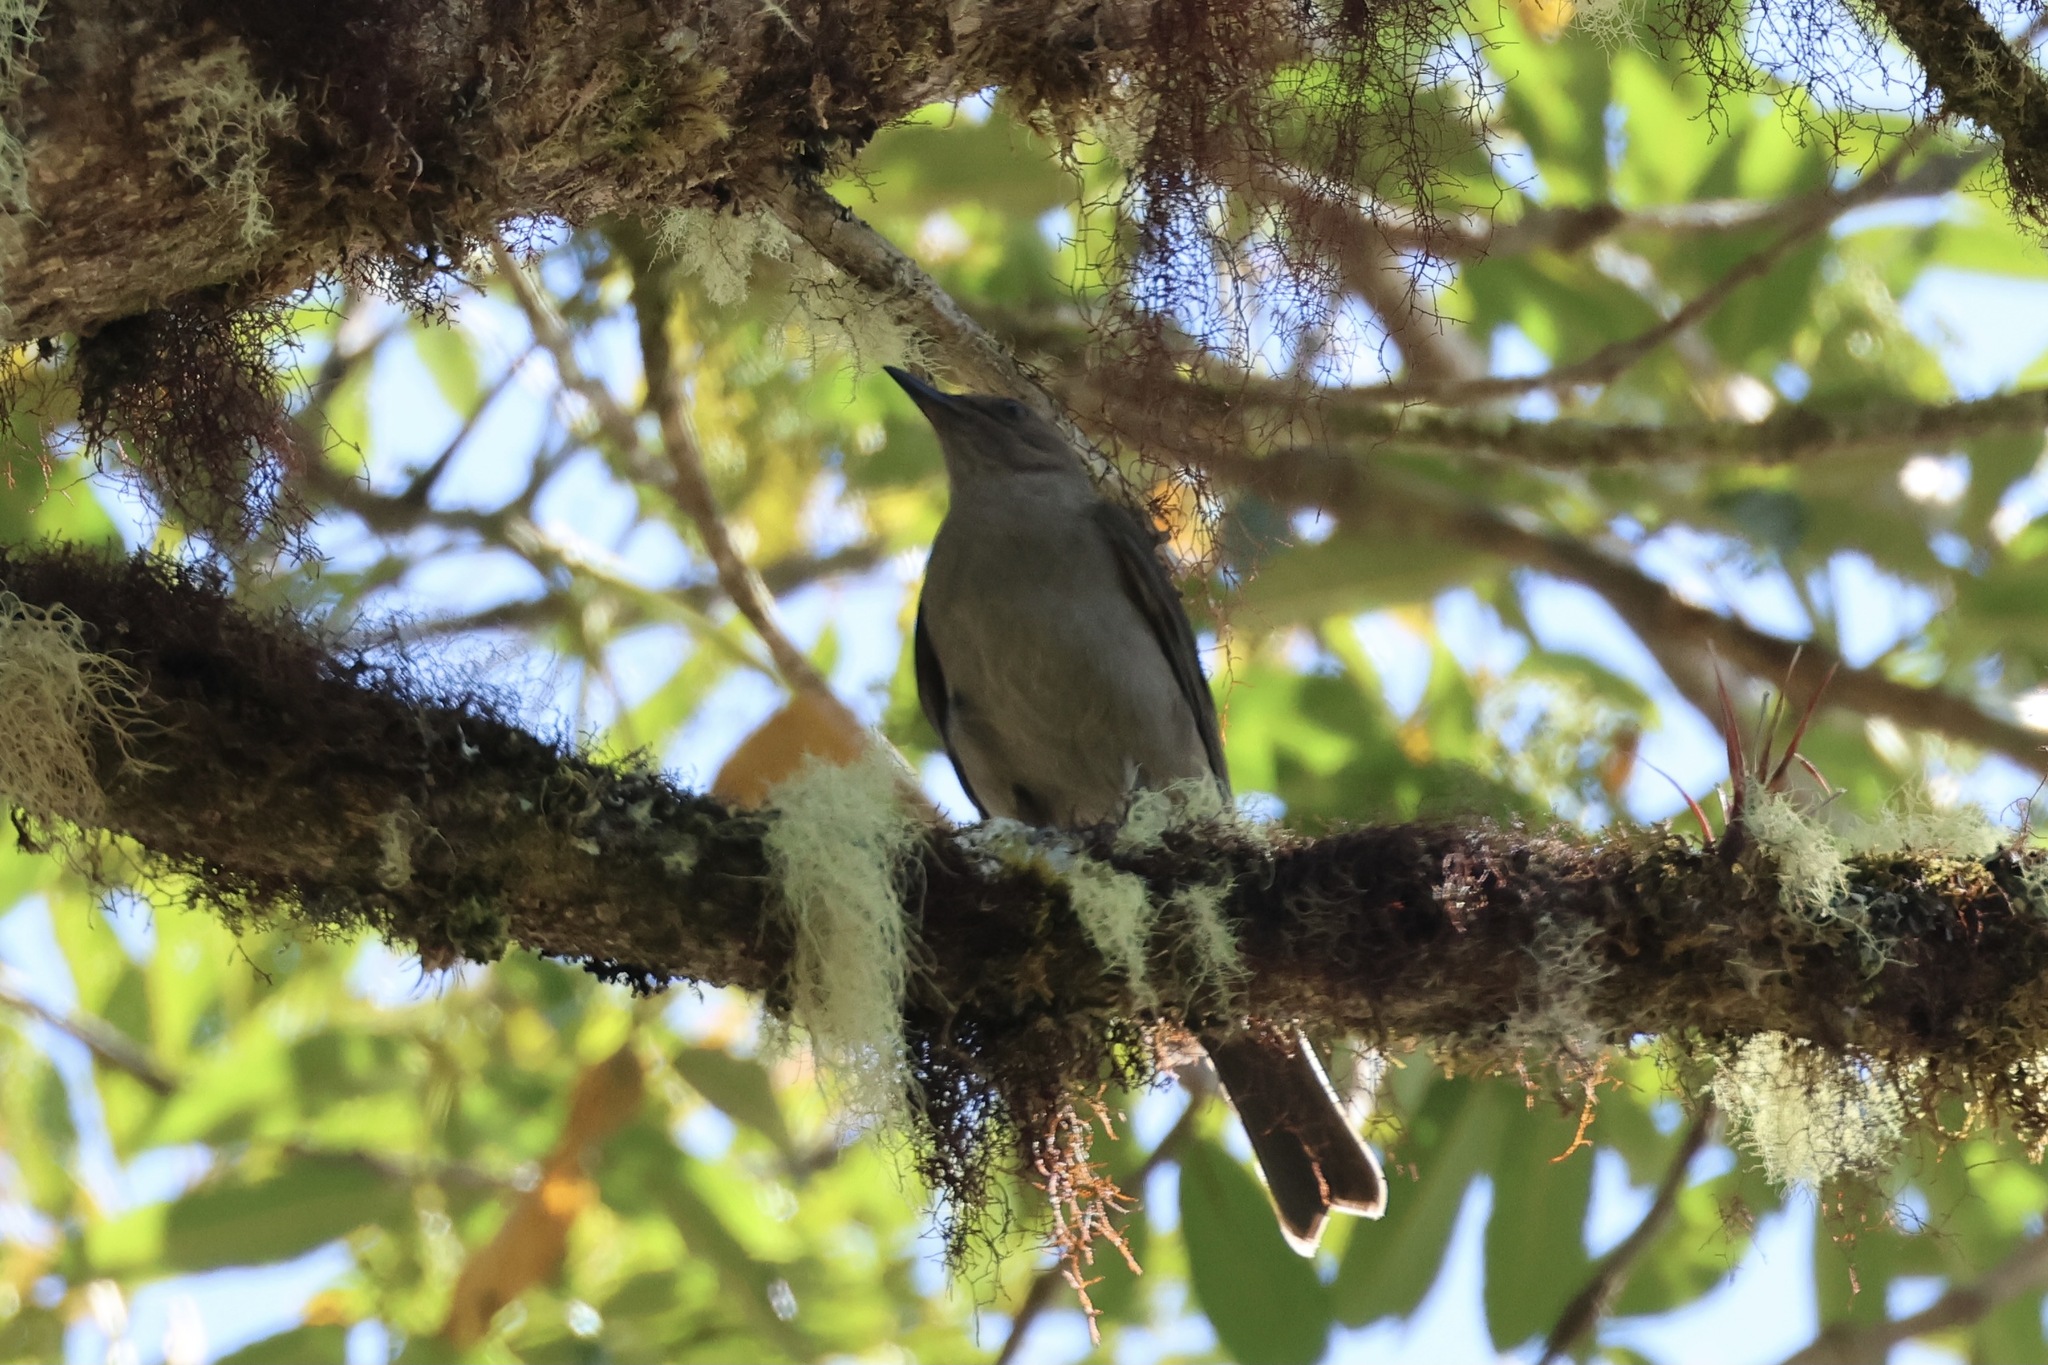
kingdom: Animalia
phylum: Chordata
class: Aves
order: Passeriformes
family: Turdidae
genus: Turdus
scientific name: Turdus plebejus
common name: Mountain thrush
